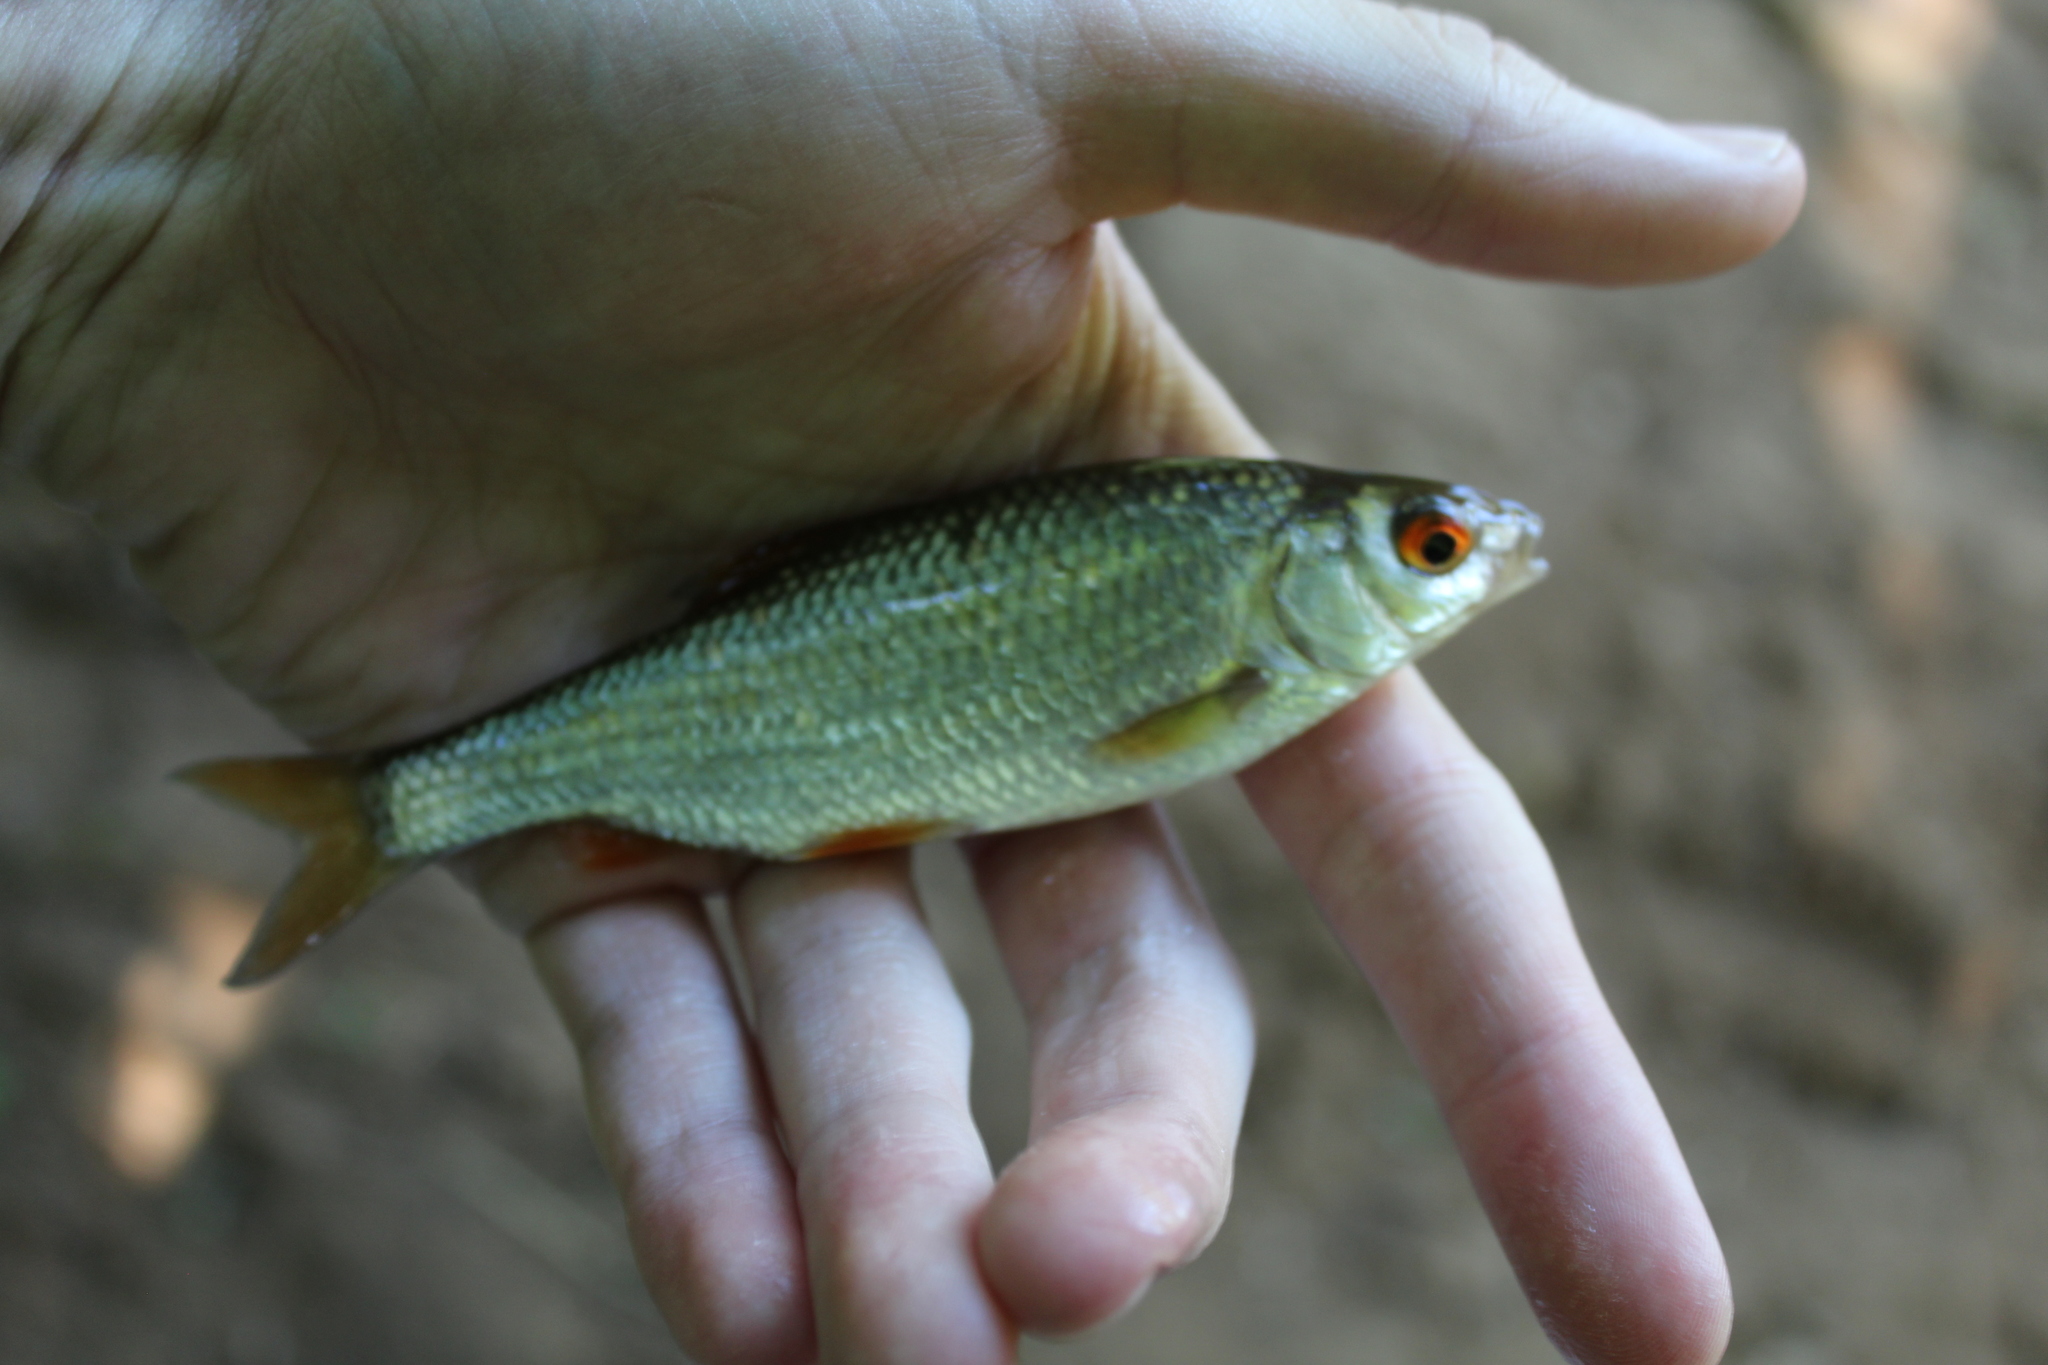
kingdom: Animalia
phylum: Chordata
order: Cypriniformes
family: Cyprinidae
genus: Rutilus
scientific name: Rutilus rutilus
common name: Roach
